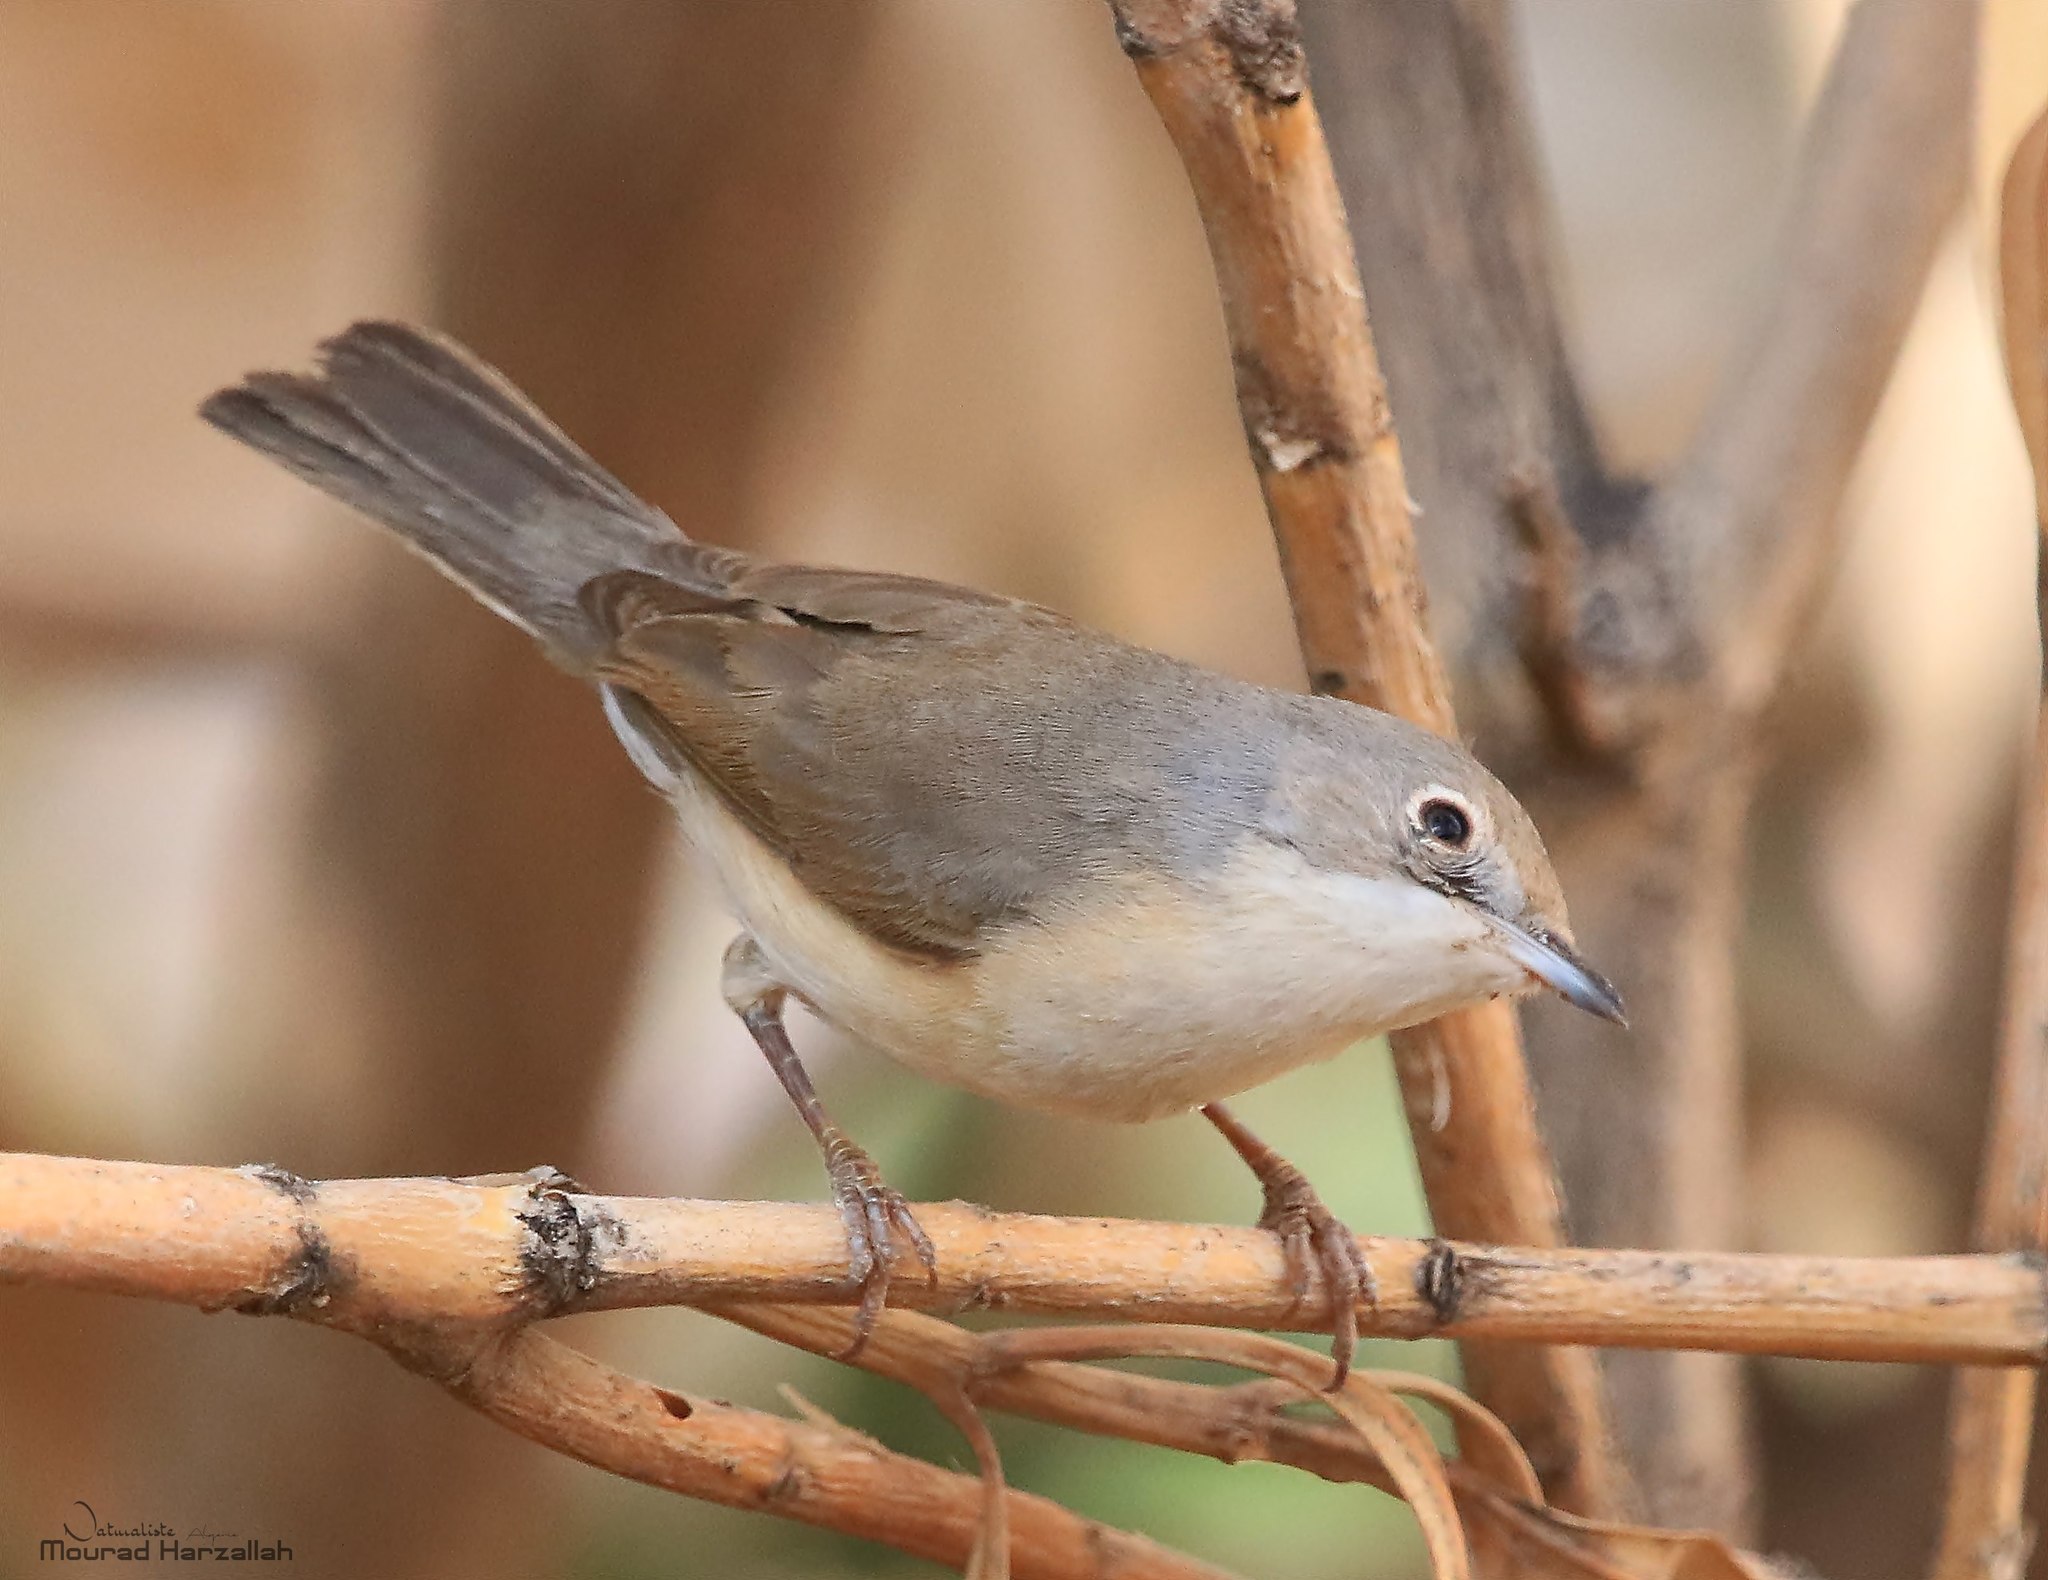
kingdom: Animalia
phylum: Chordata
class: Aves
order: Passeriformes
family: Sylviidae
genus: Curruca
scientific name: Curruca subalpina
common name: Moltoni's warbler
